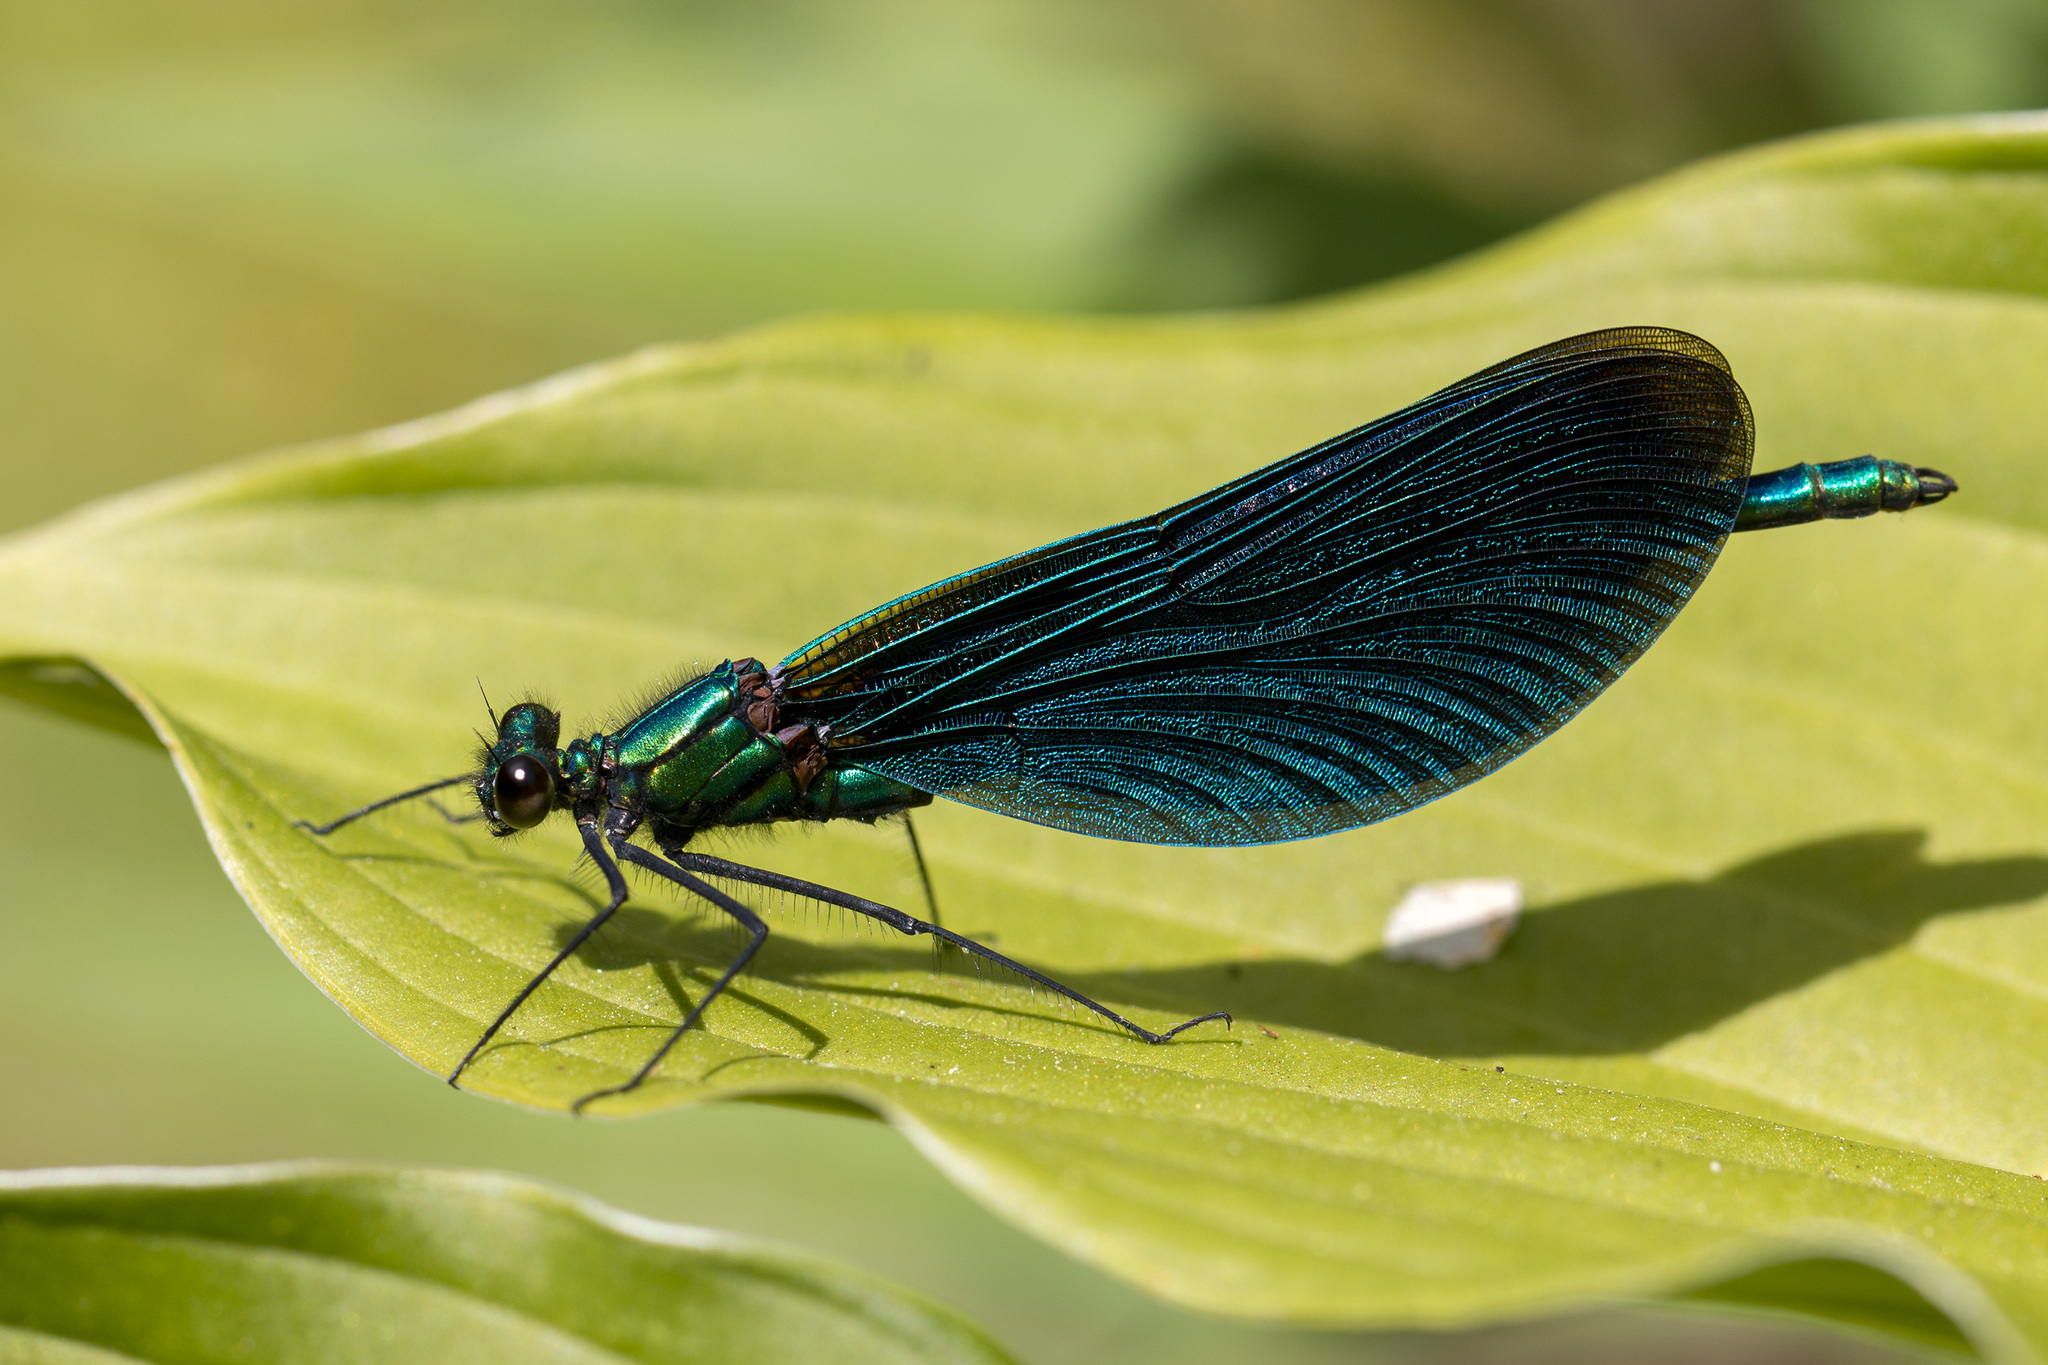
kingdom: Animalia
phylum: Arthropoda
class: Insecta
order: Odonata
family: Calopterygidae
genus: Calopteryx
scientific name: Calopteryx virgo
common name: Beautiful demoiselle
